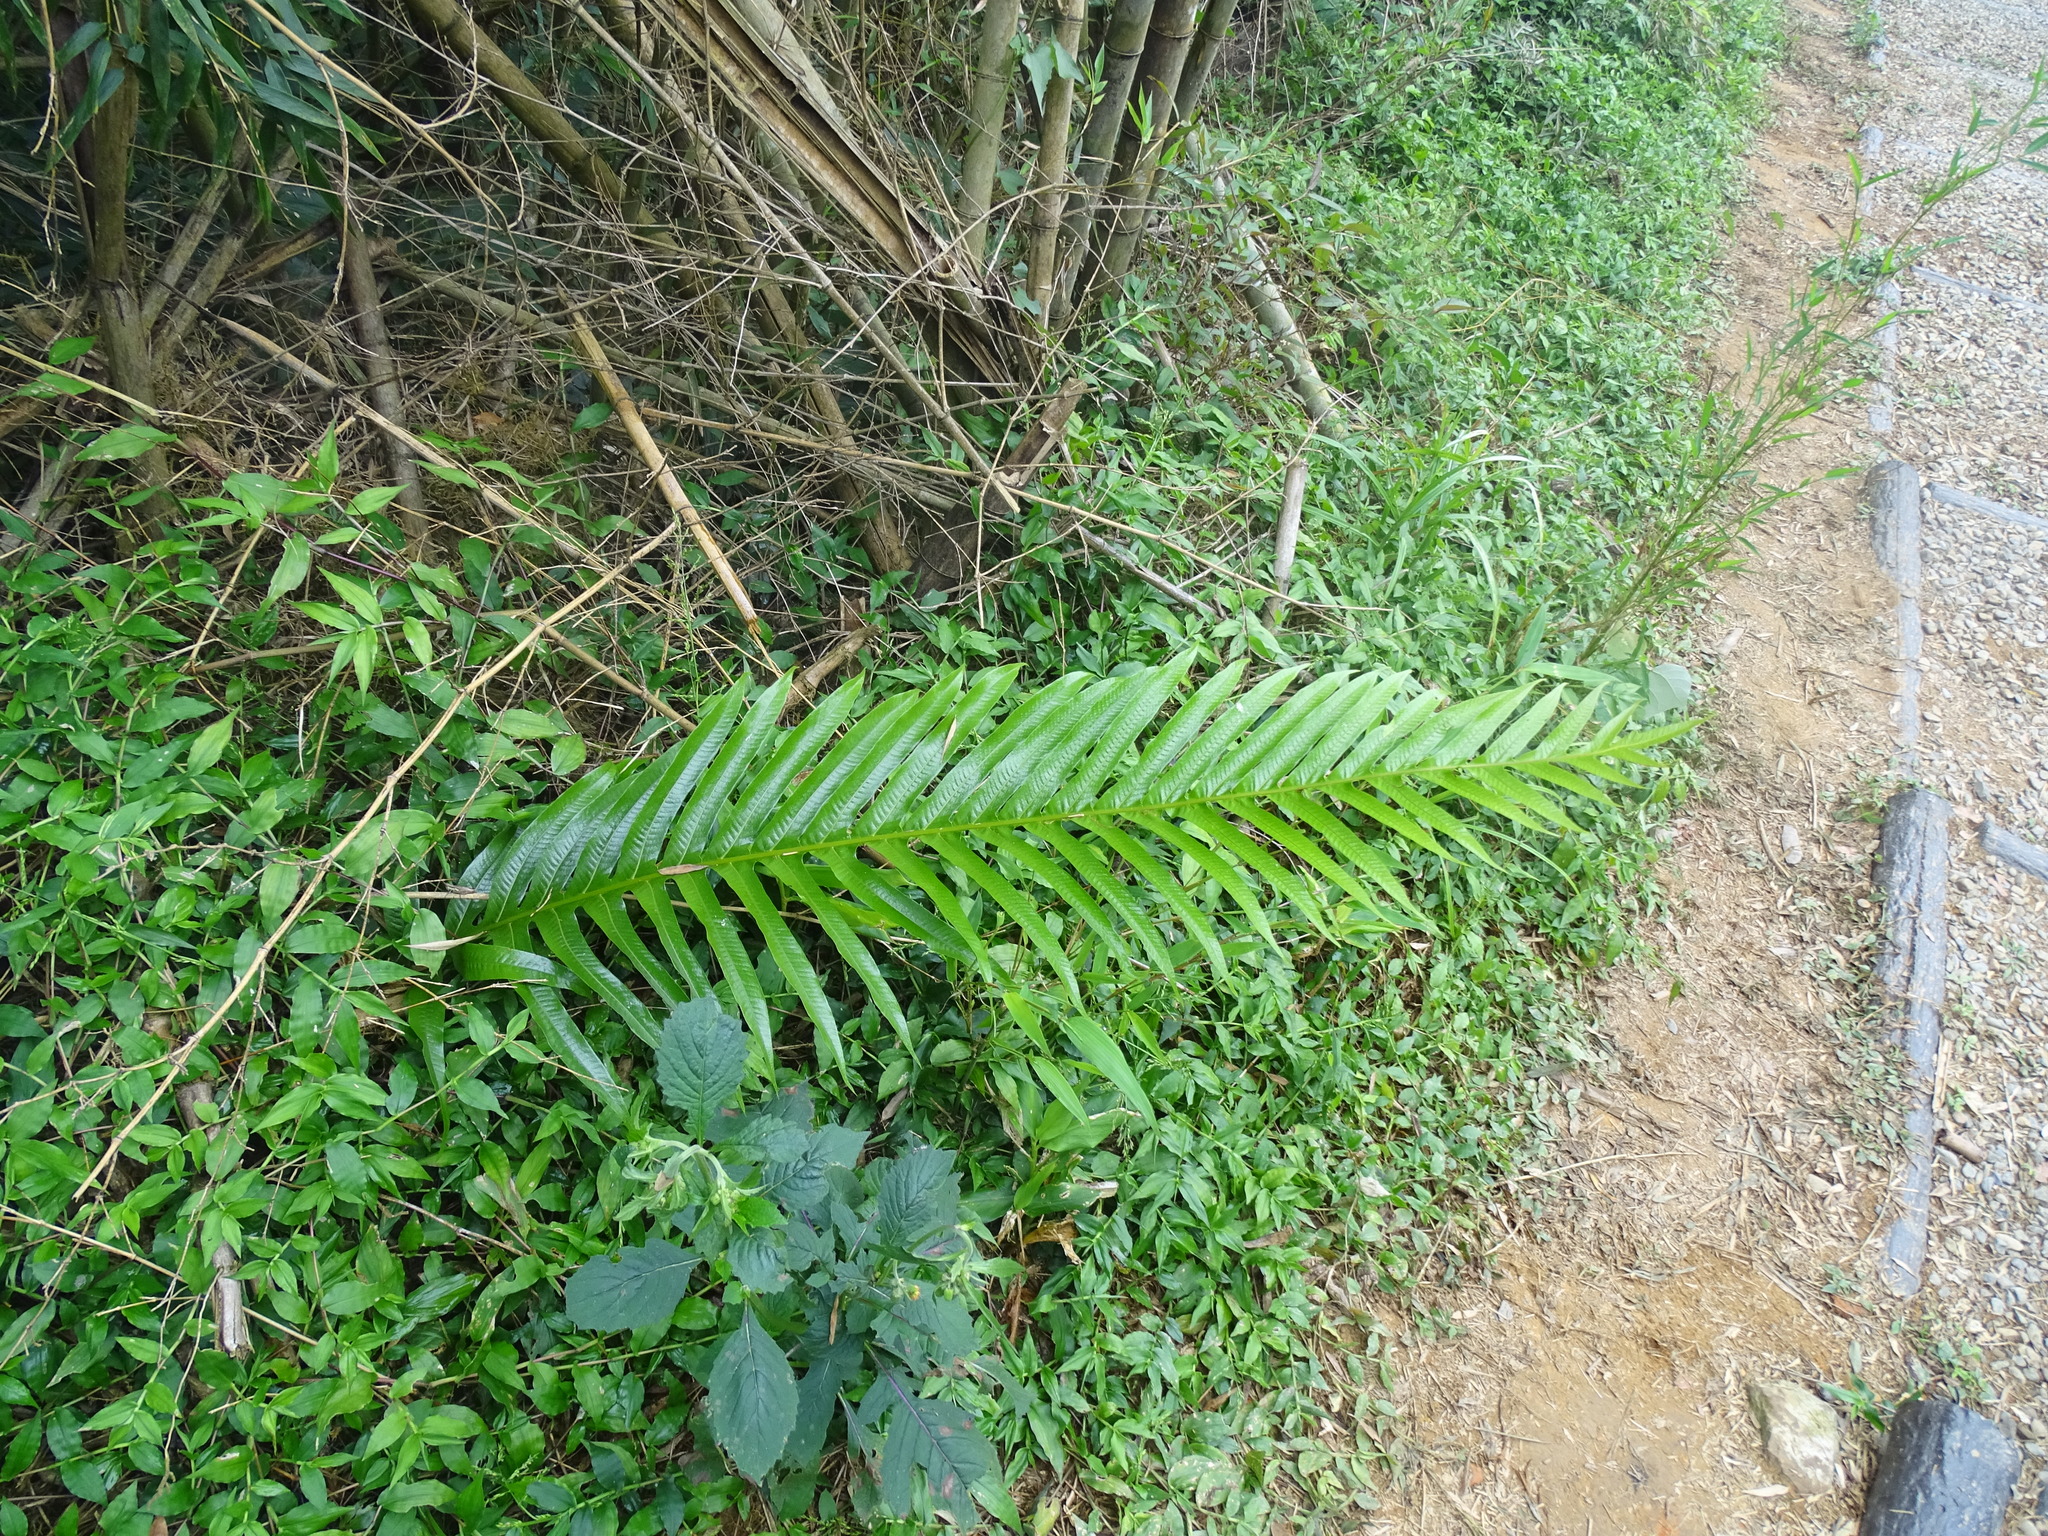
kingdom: Plantae
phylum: Tracheophyta
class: Polypodiopsida
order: Polypodiales
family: Polypodiaceae
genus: Drynaria
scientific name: Drynaria coronans
